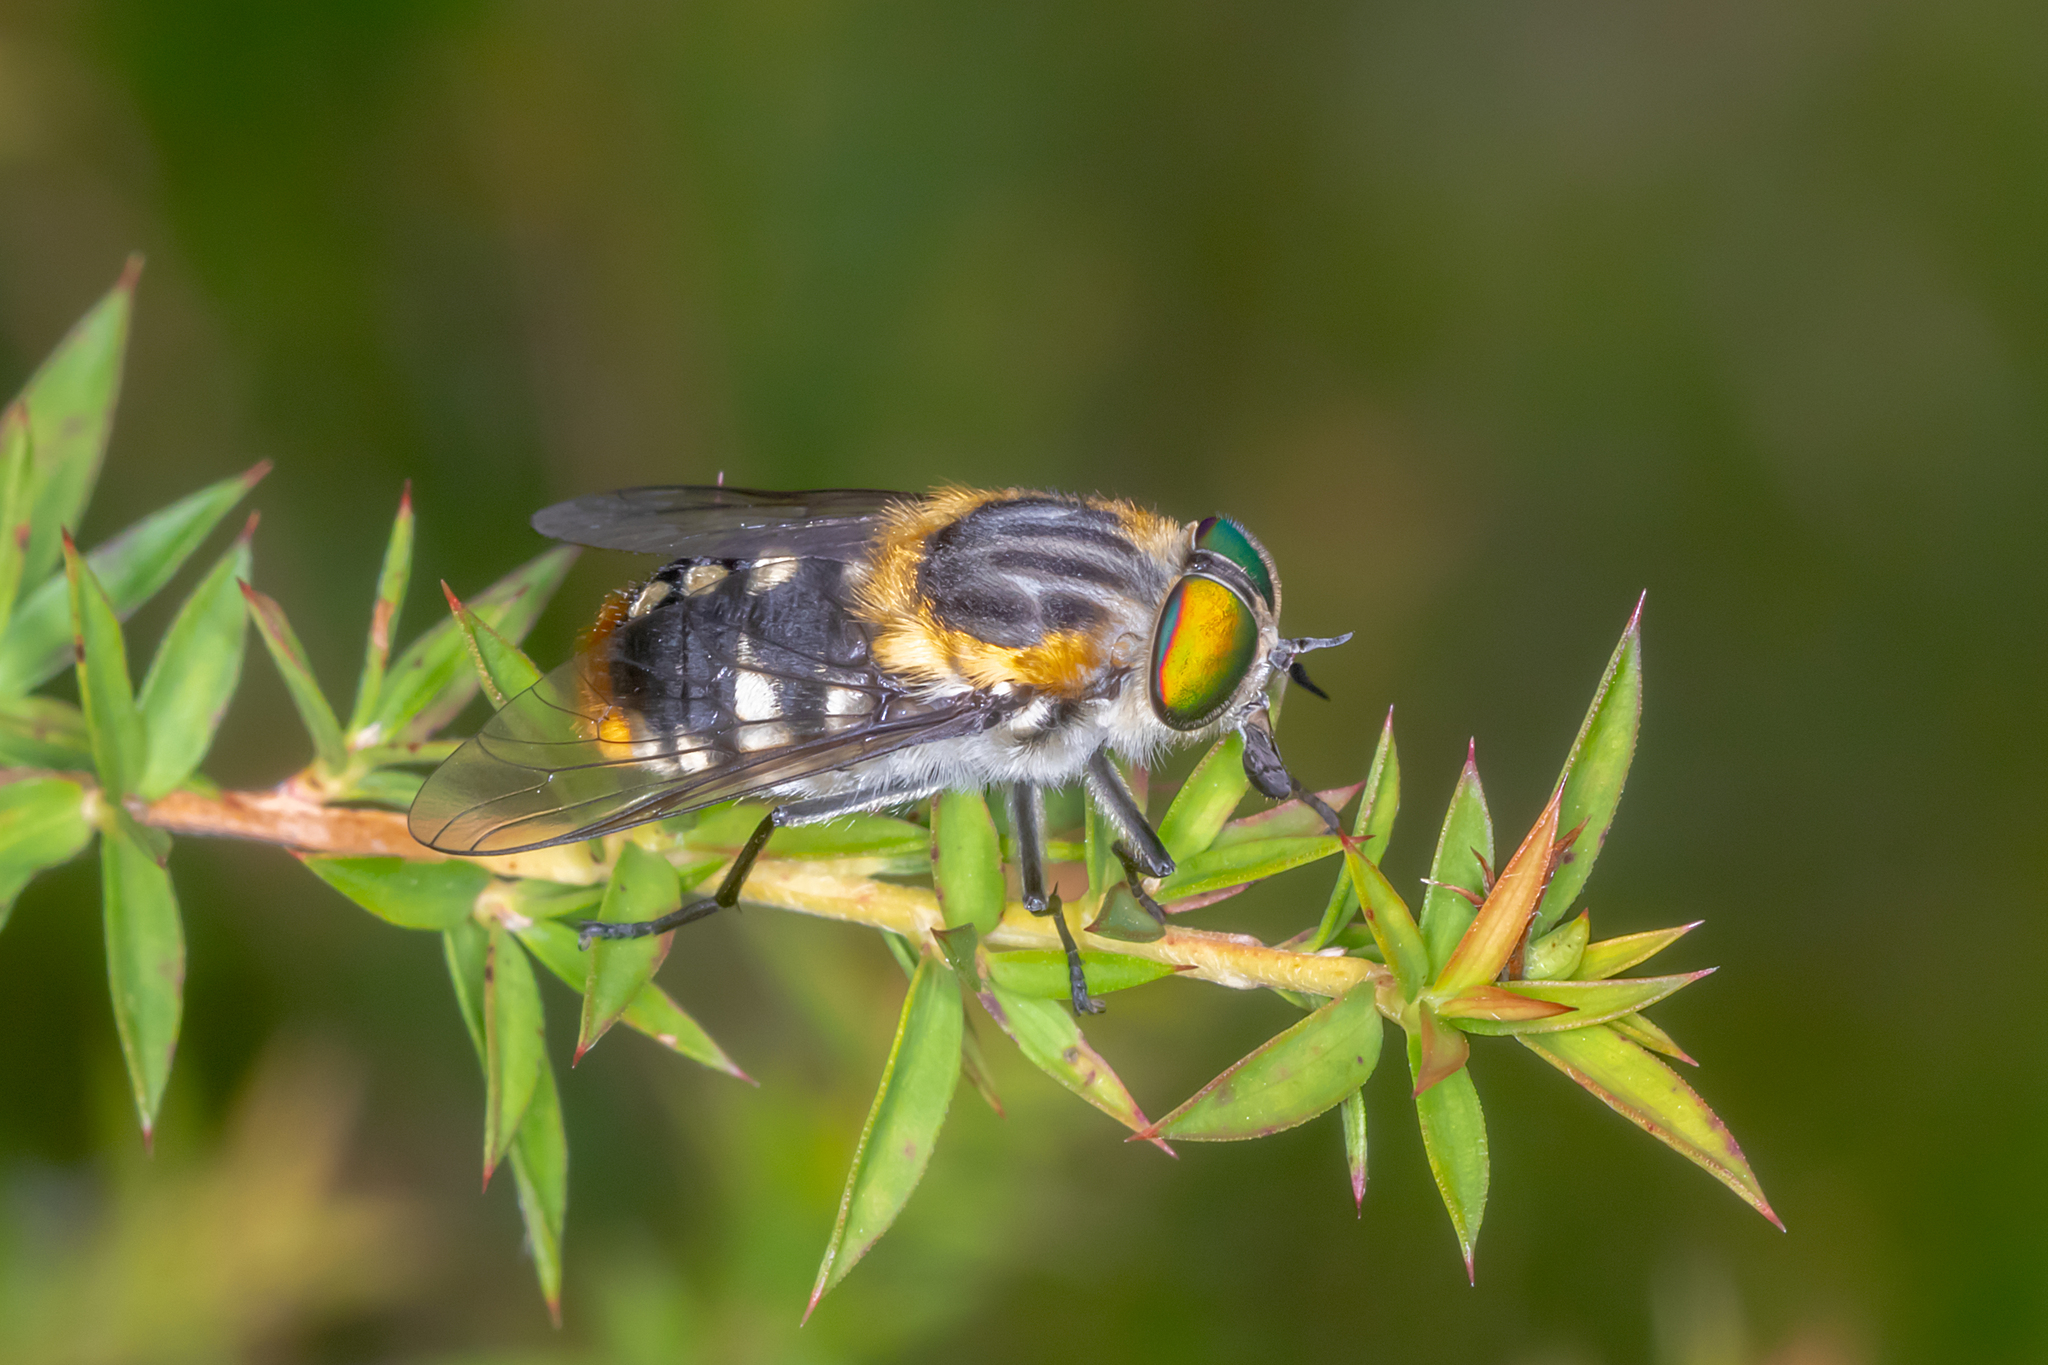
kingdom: Animalia
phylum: Arthropoda
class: Insecta
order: Diptera
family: Tabanidae
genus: Scaptia
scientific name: Scaptia auriflua
